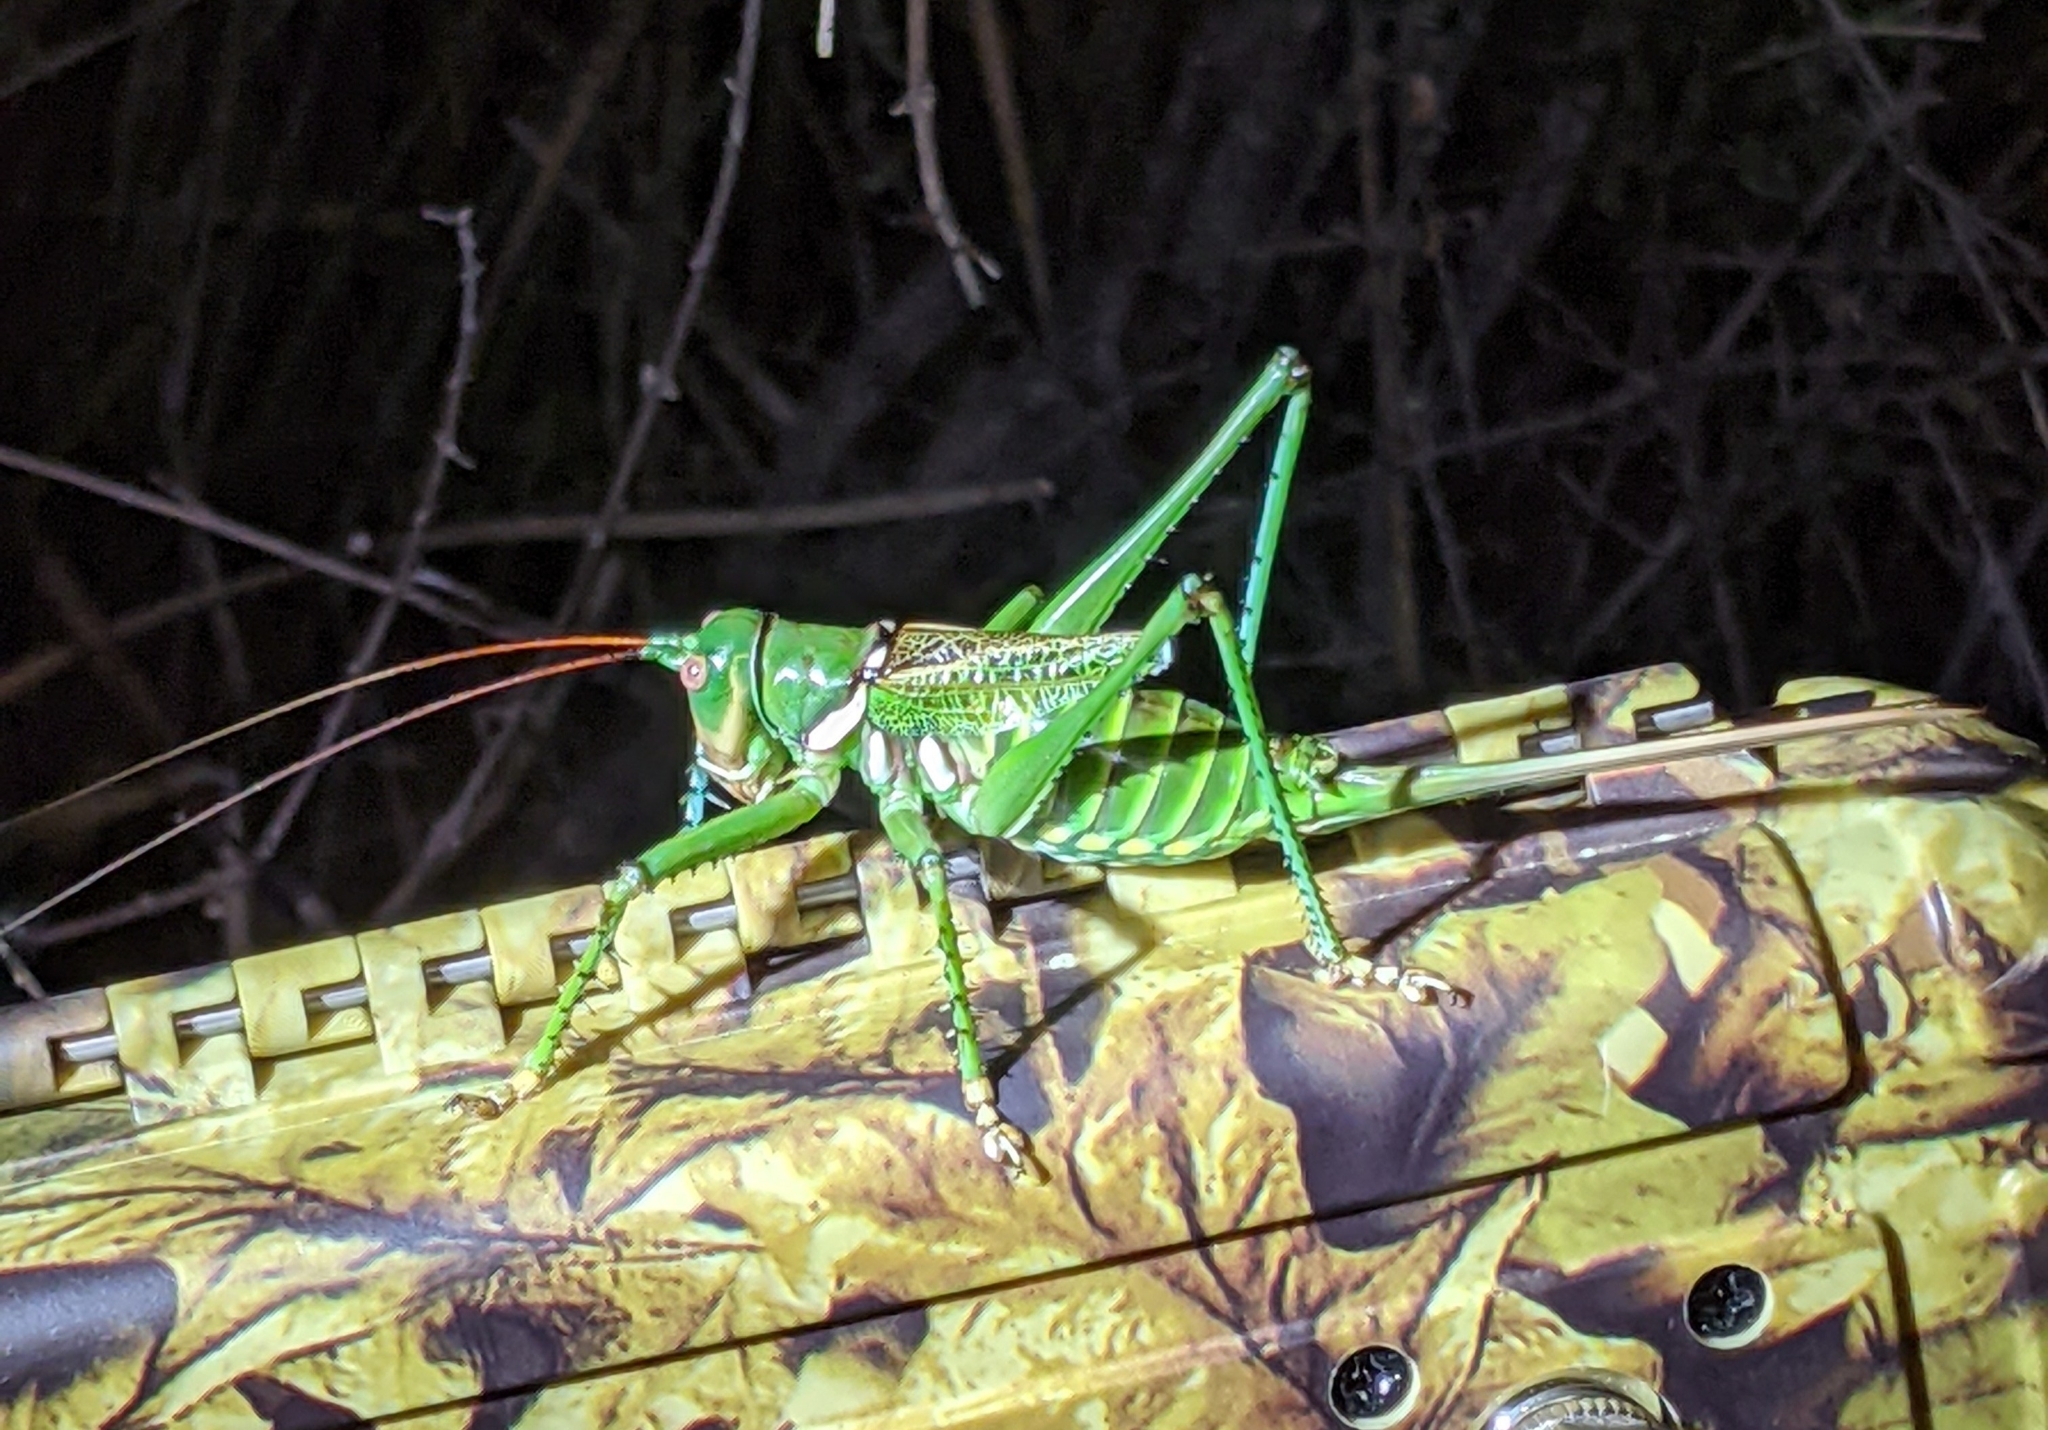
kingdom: Animalia
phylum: Arthropoda
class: Insecta
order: Orthoptera
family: Tettigoniidae
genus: Neobarrettia
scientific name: Neobarrettia spinosa
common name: Greater arid-land katydid
